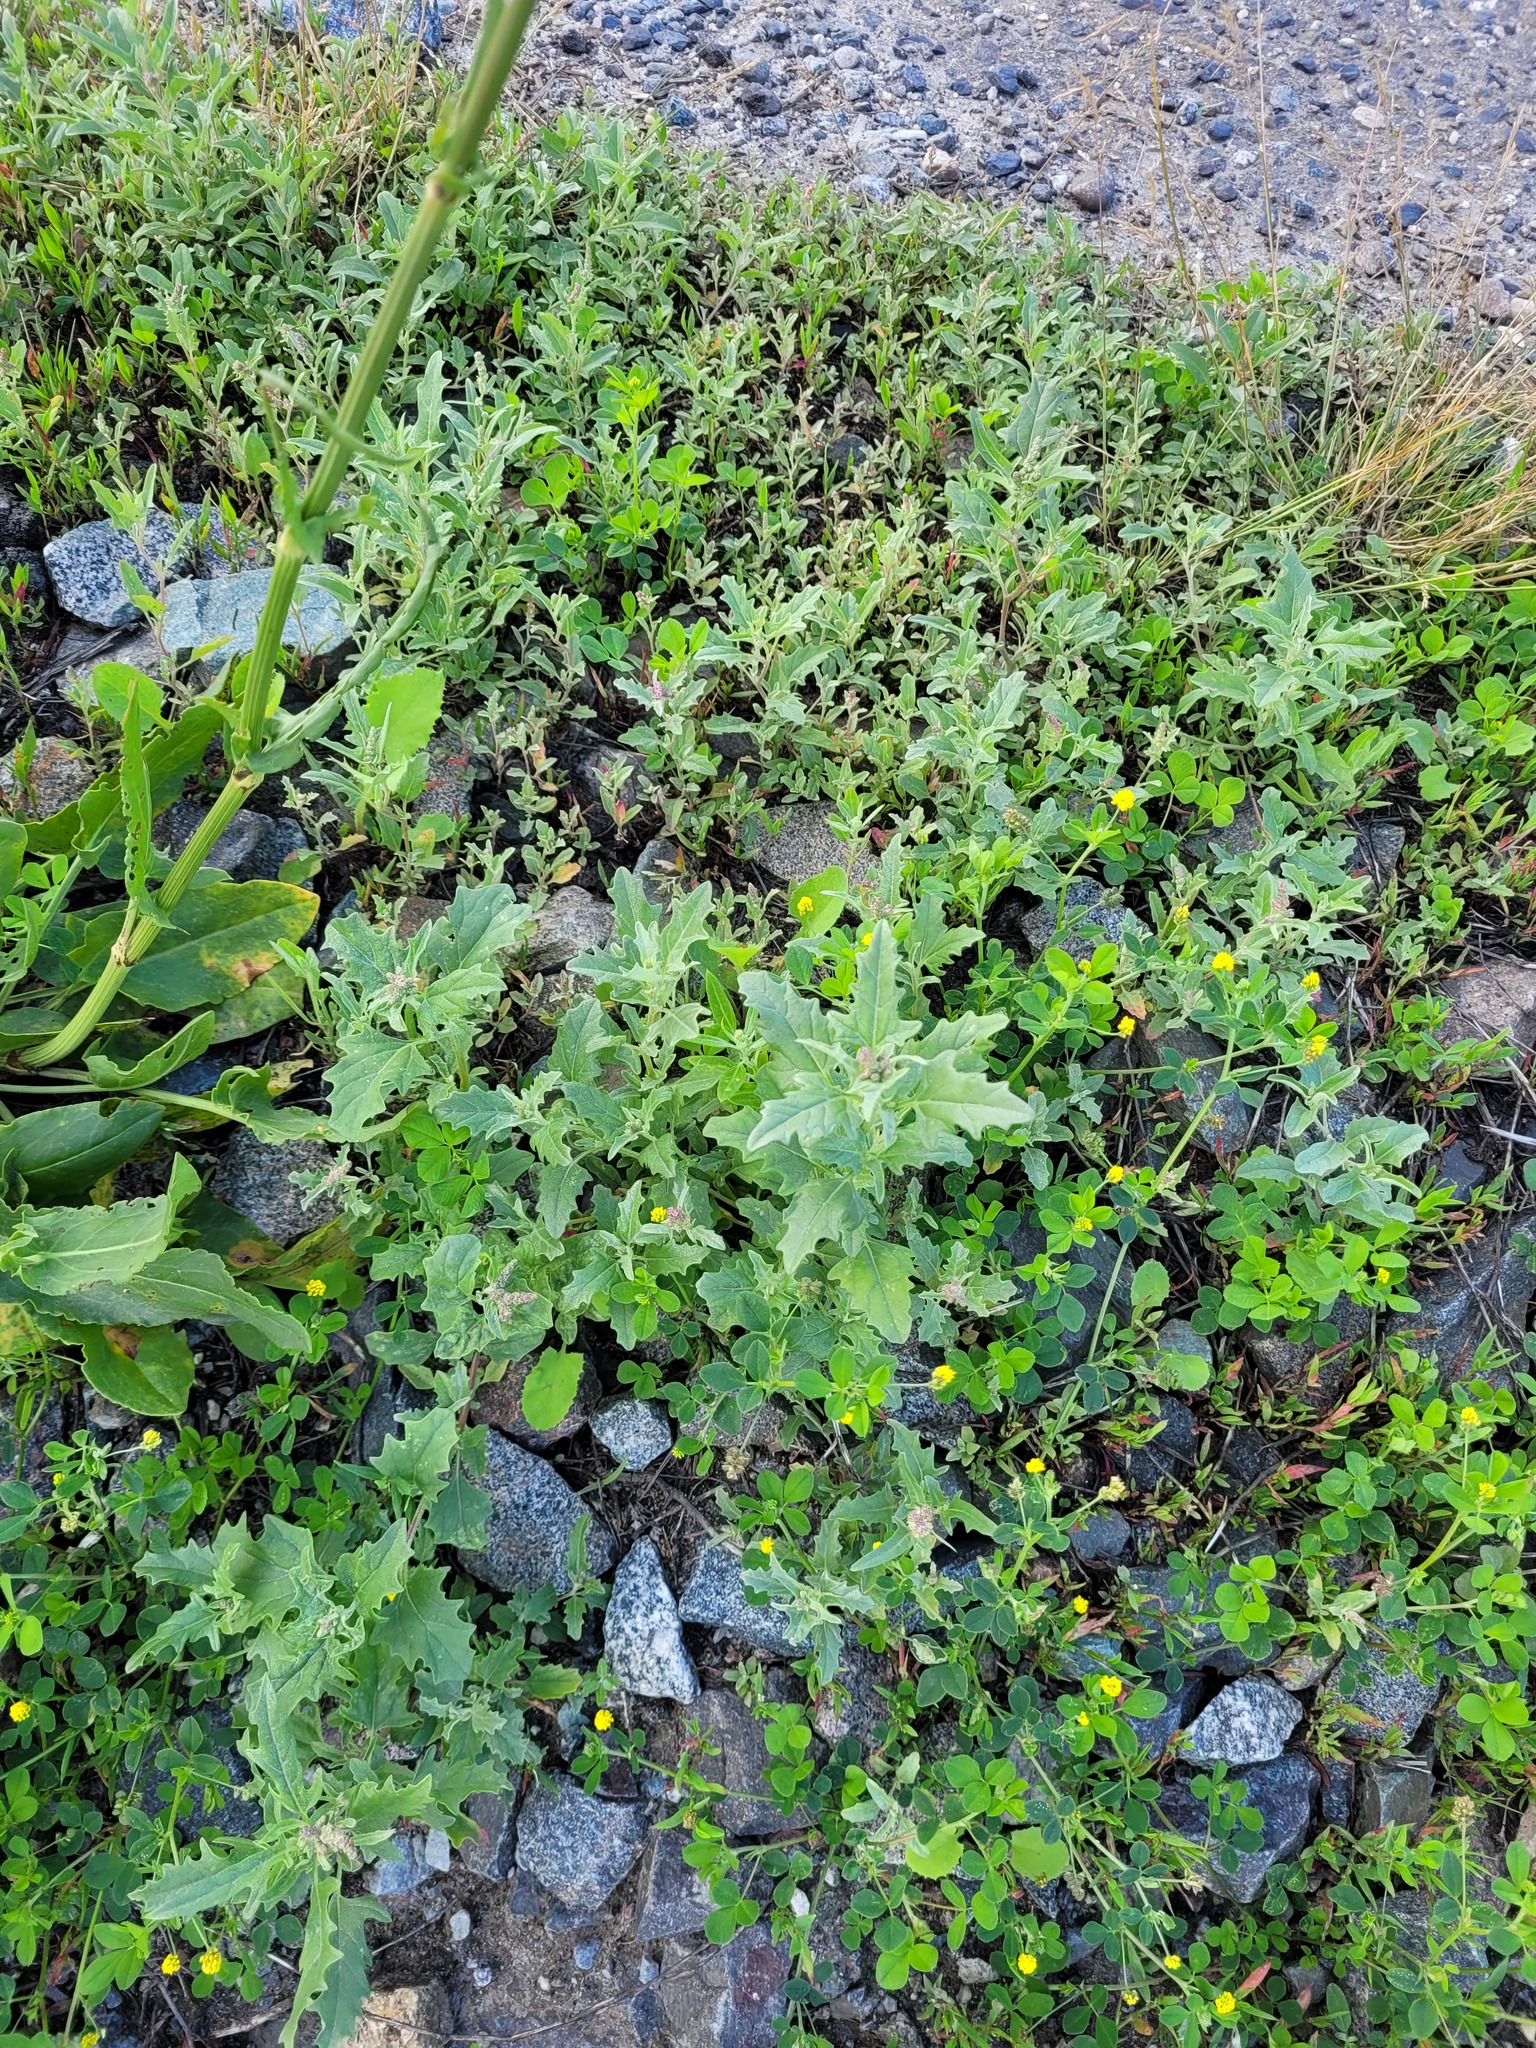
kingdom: Plantae
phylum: Tracheophyta
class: Magnoliopsida
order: Caryophyllales
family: Amaranthaceae
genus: Atriplex
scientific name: Atriplex tatarica
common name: Tatarian orache
